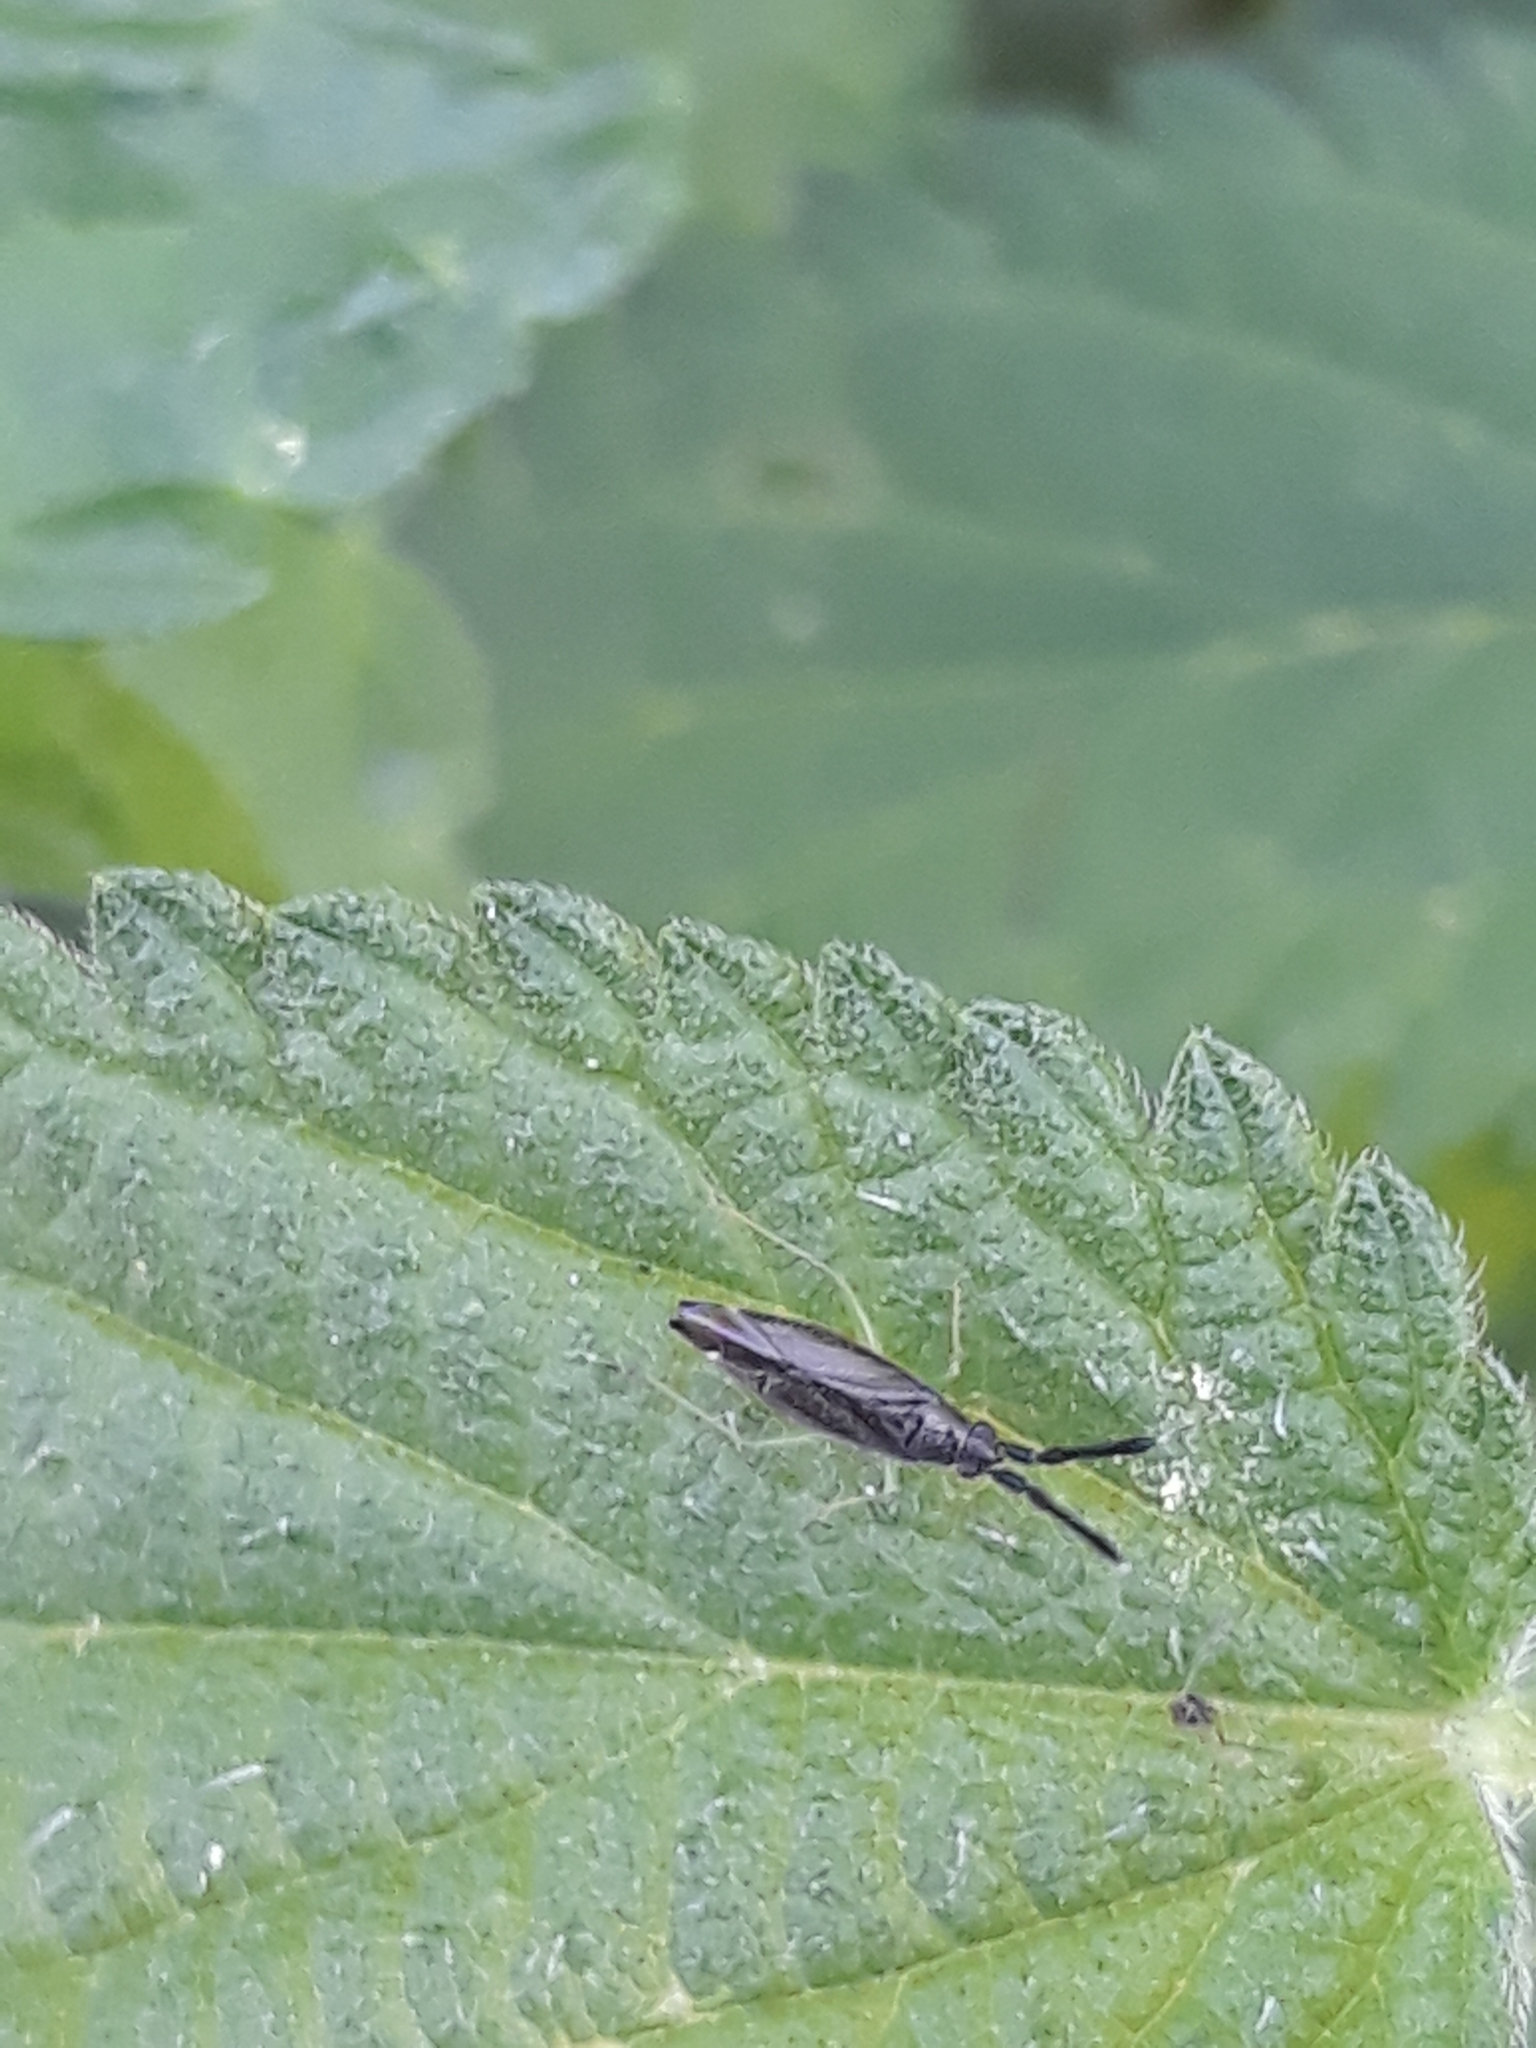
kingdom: Animalia
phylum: Arthropoda
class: Insecta
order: Hemiptera
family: Miridae
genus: Heterotoma
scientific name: Heterotoma planicornis
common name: Plant bug
